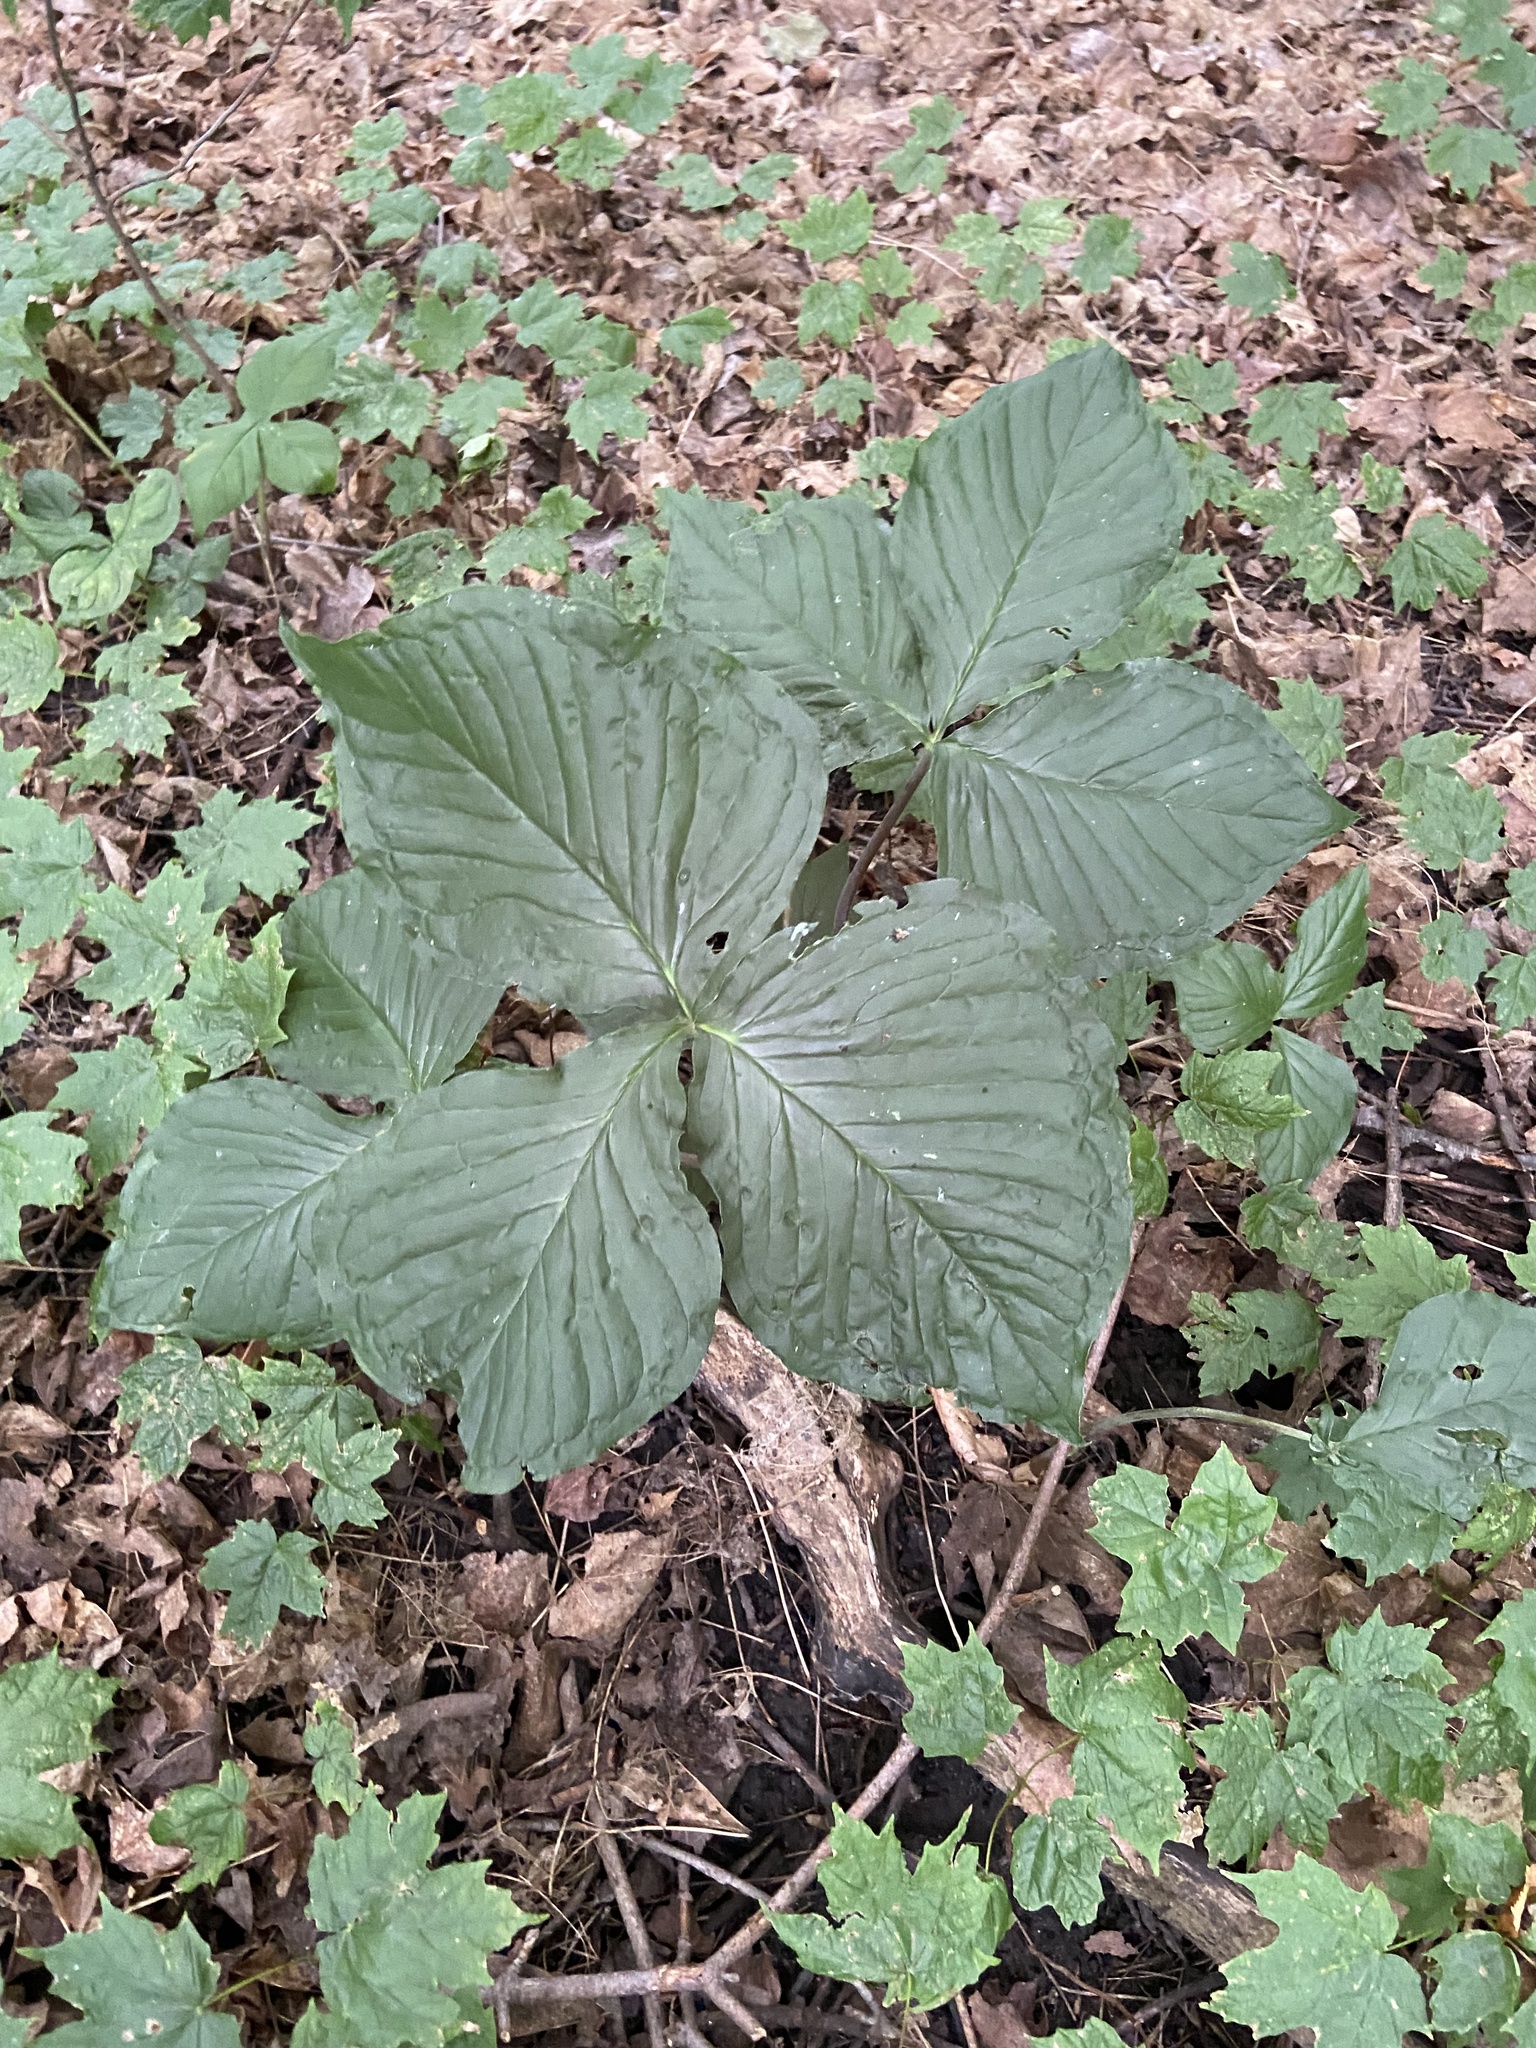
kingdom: Plantae
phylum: Tracheophyta
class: Liliopsida
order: Alismatales
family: Araceae
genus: Arisaema
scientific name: Arisaema triphyllum
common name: Jack-in-the-pulpit
